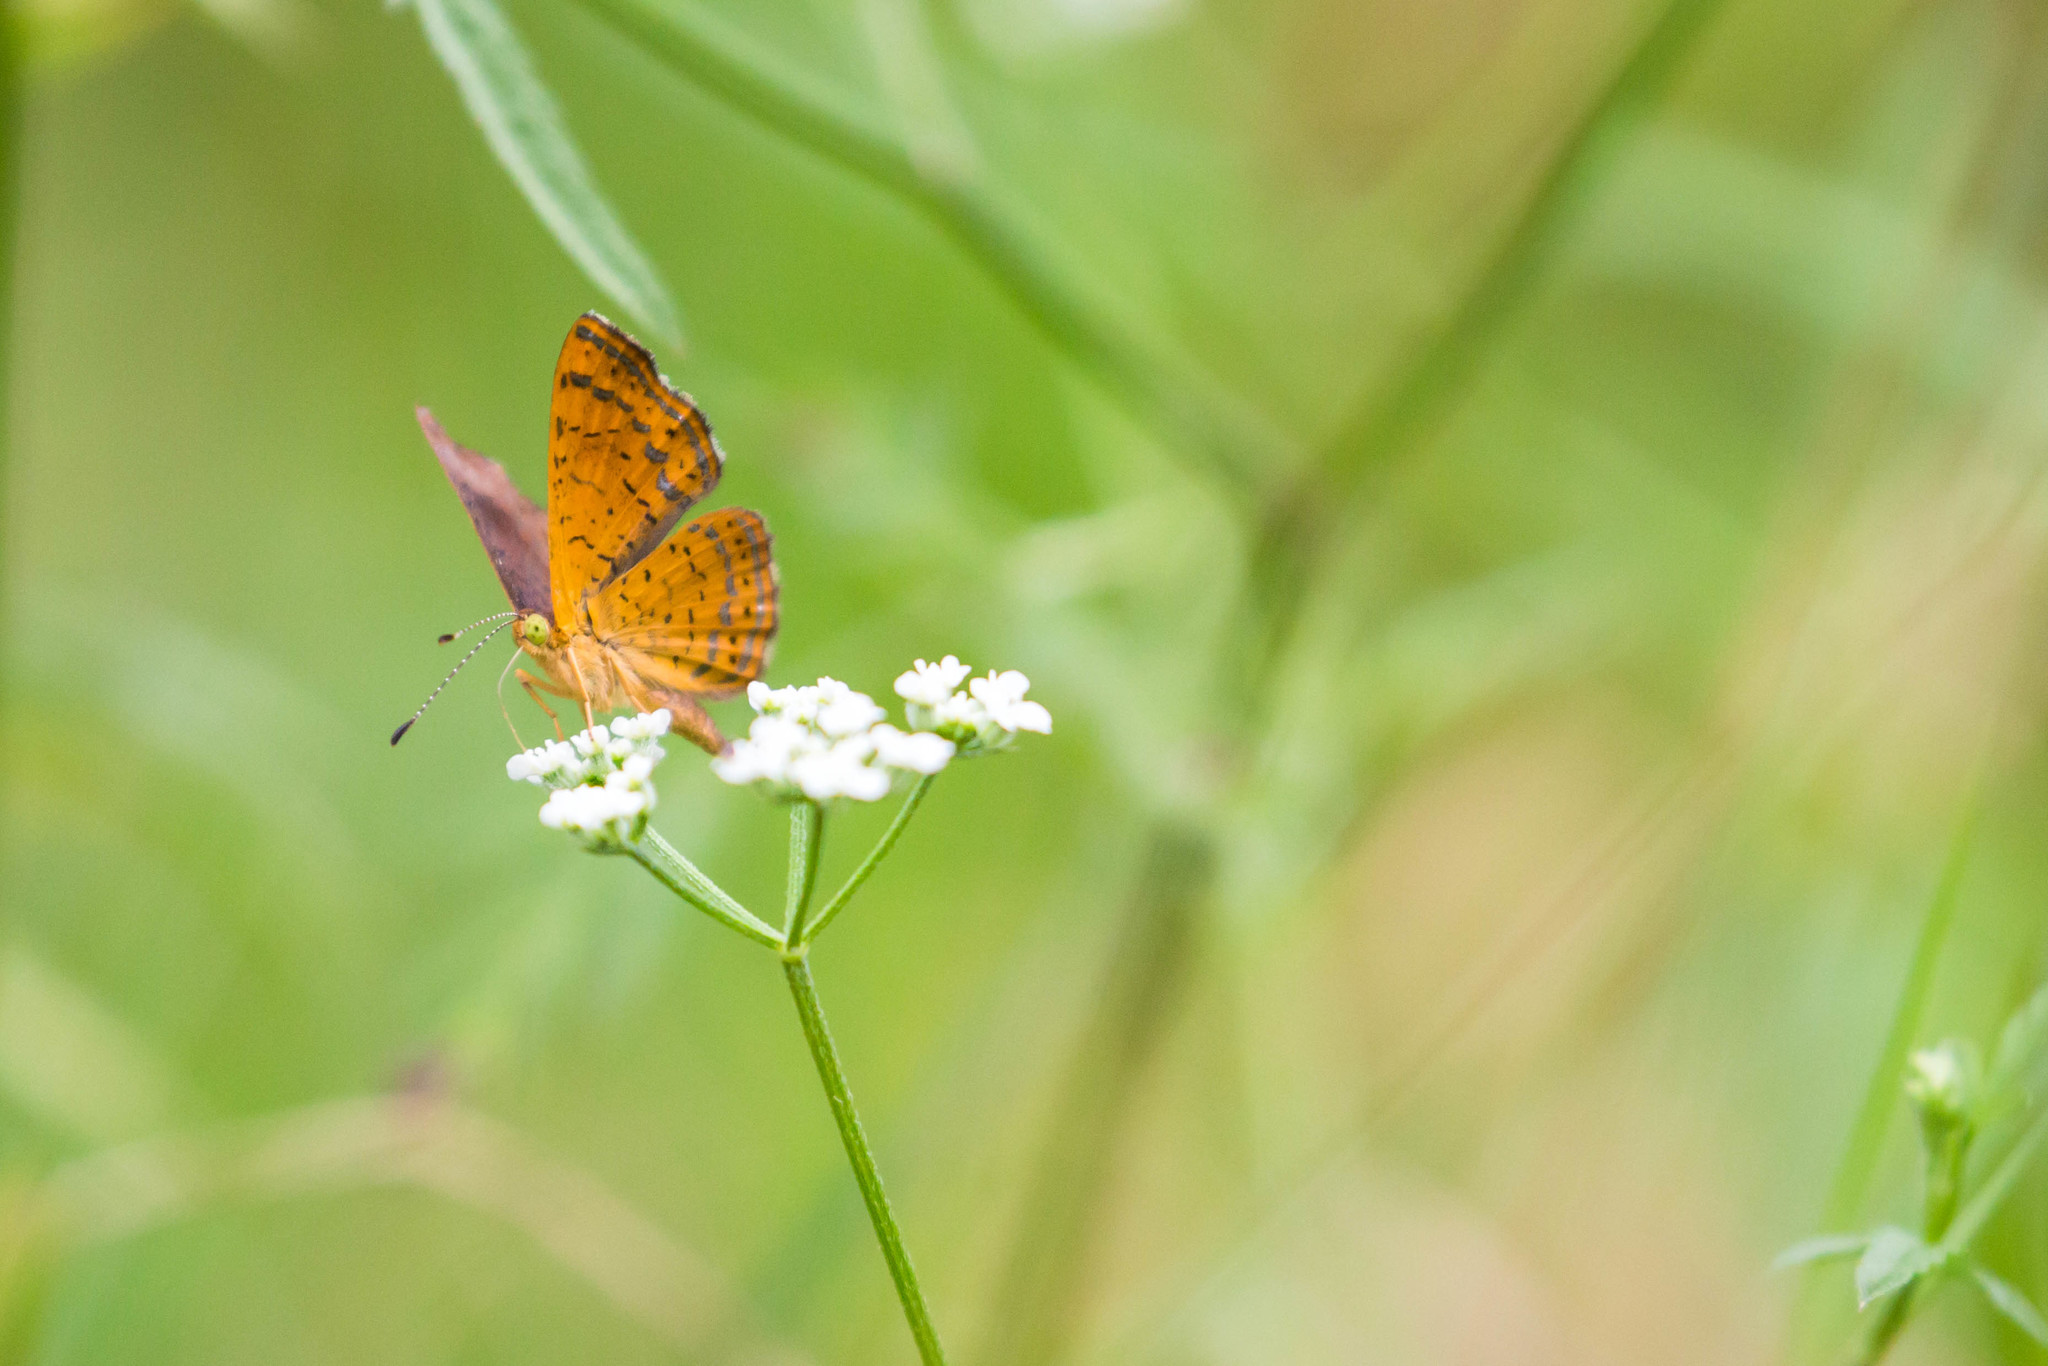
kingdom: Animalia
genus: Calephelis
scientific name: Calephelis nemesis
